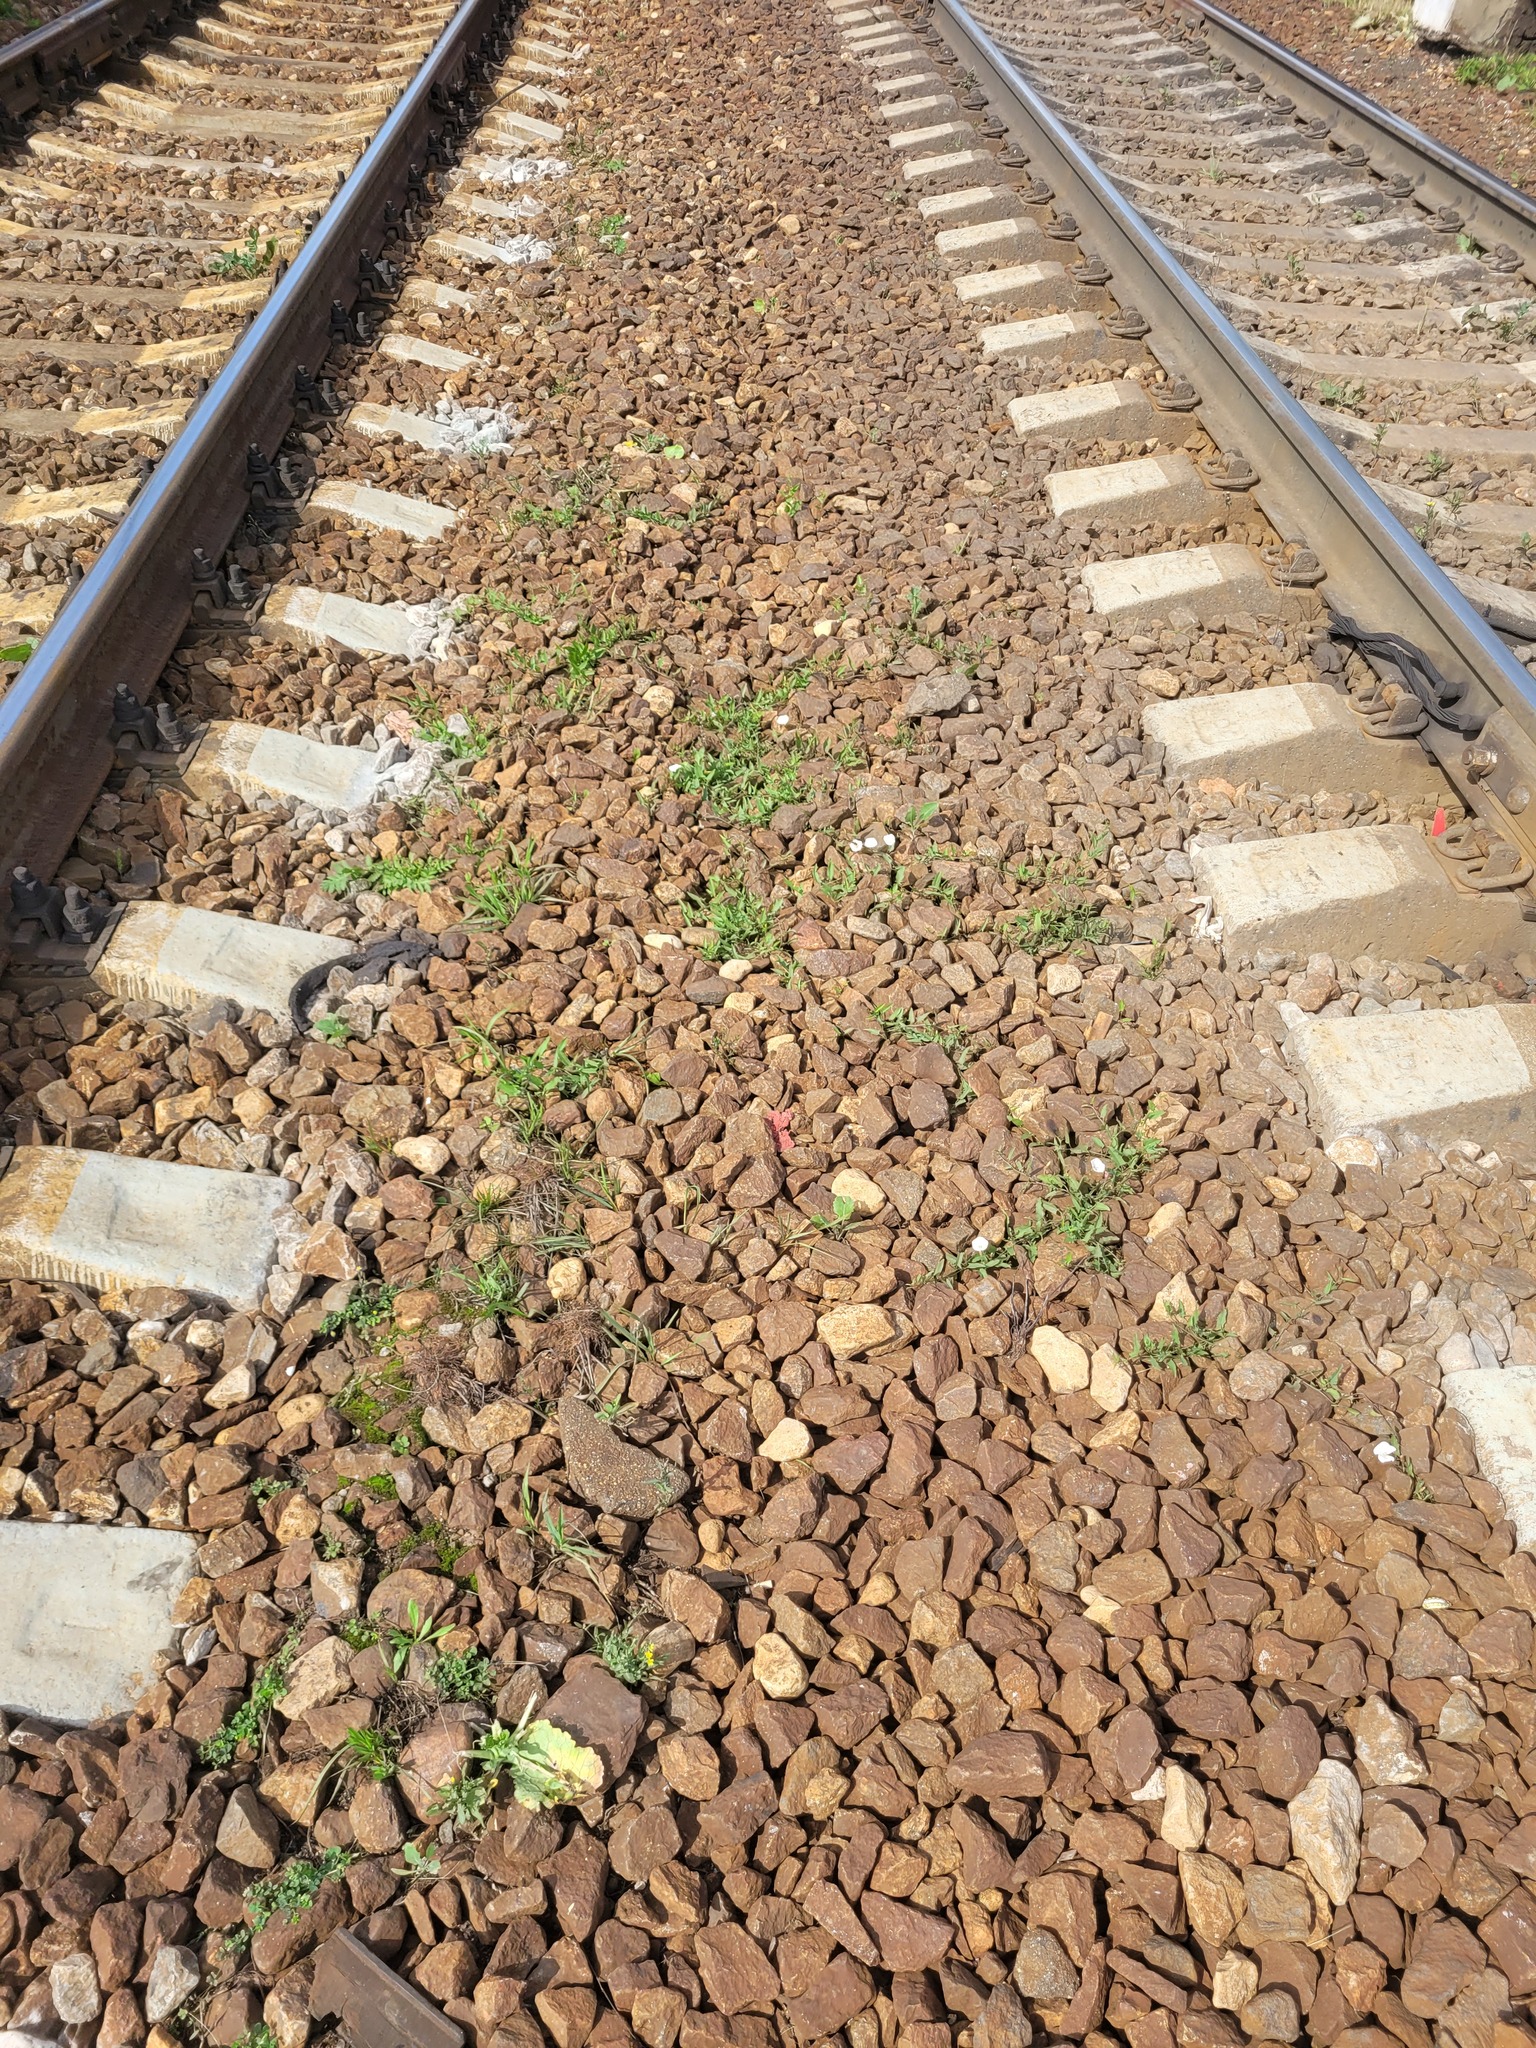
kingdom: Plantae
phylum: Tracheophyta
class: Magnoliopsida
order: Solanales
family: Convolvulaceae
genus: Convolvulus
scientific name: Convolvulus arvensis
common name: Field bindweed
